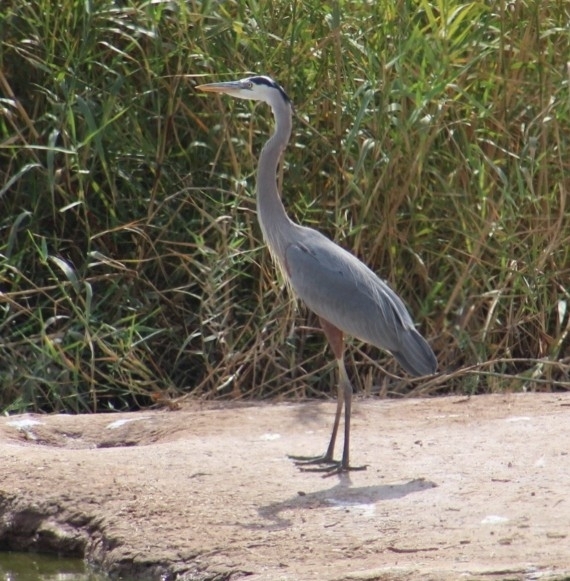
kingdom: Animalia
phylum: Chordata
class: Aves
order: Pelecaniformes
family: Ardeidae
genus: Ardea
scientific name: Ardea herodias
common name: Great blue heron
